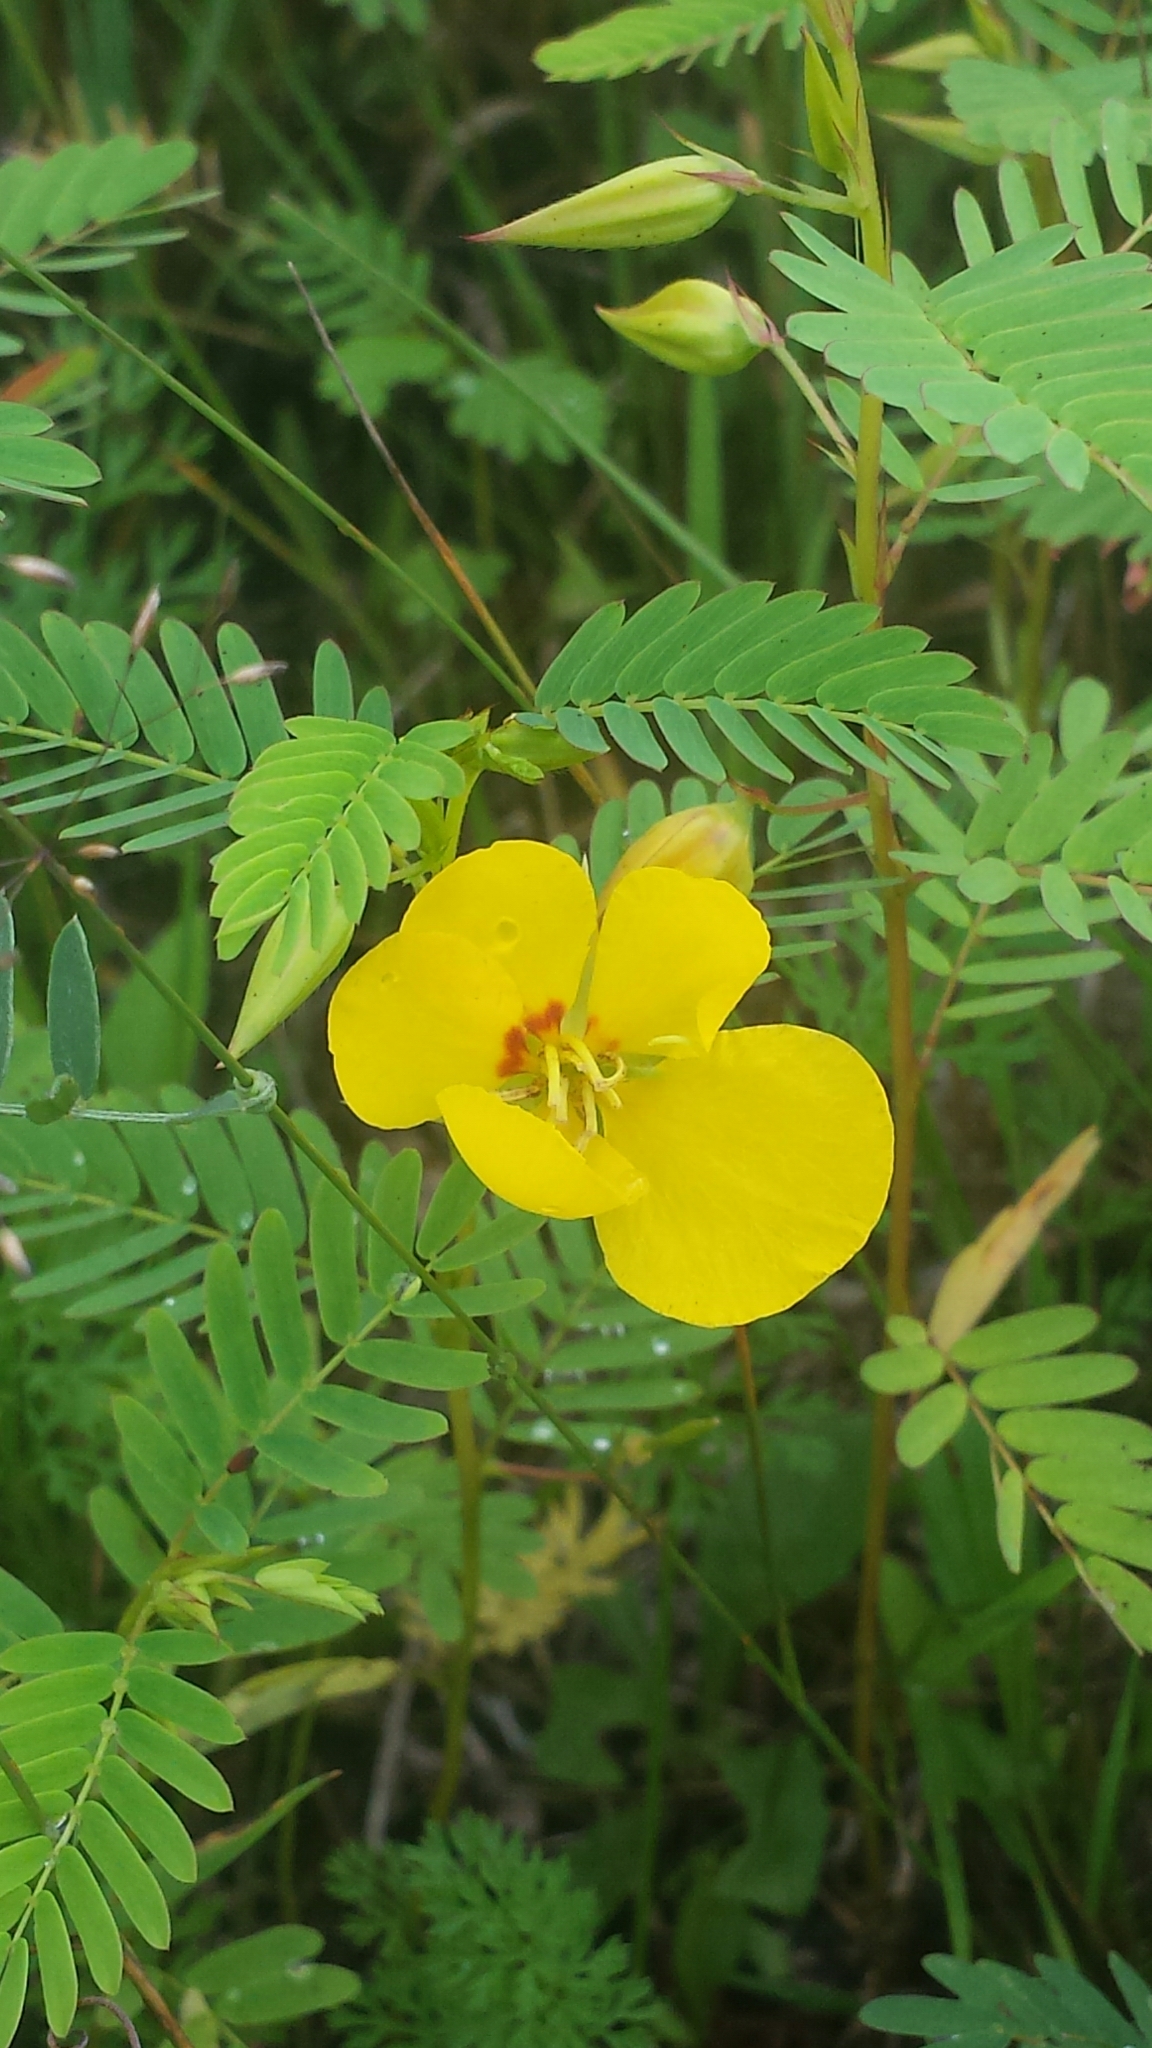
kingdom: Plantae
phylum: Tracheophyta
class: Magnoliopsida
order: Fabales
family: Fabaceae
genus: Chamaecrista
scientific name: Chamaecrista fasciculata
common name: Golden cassia
